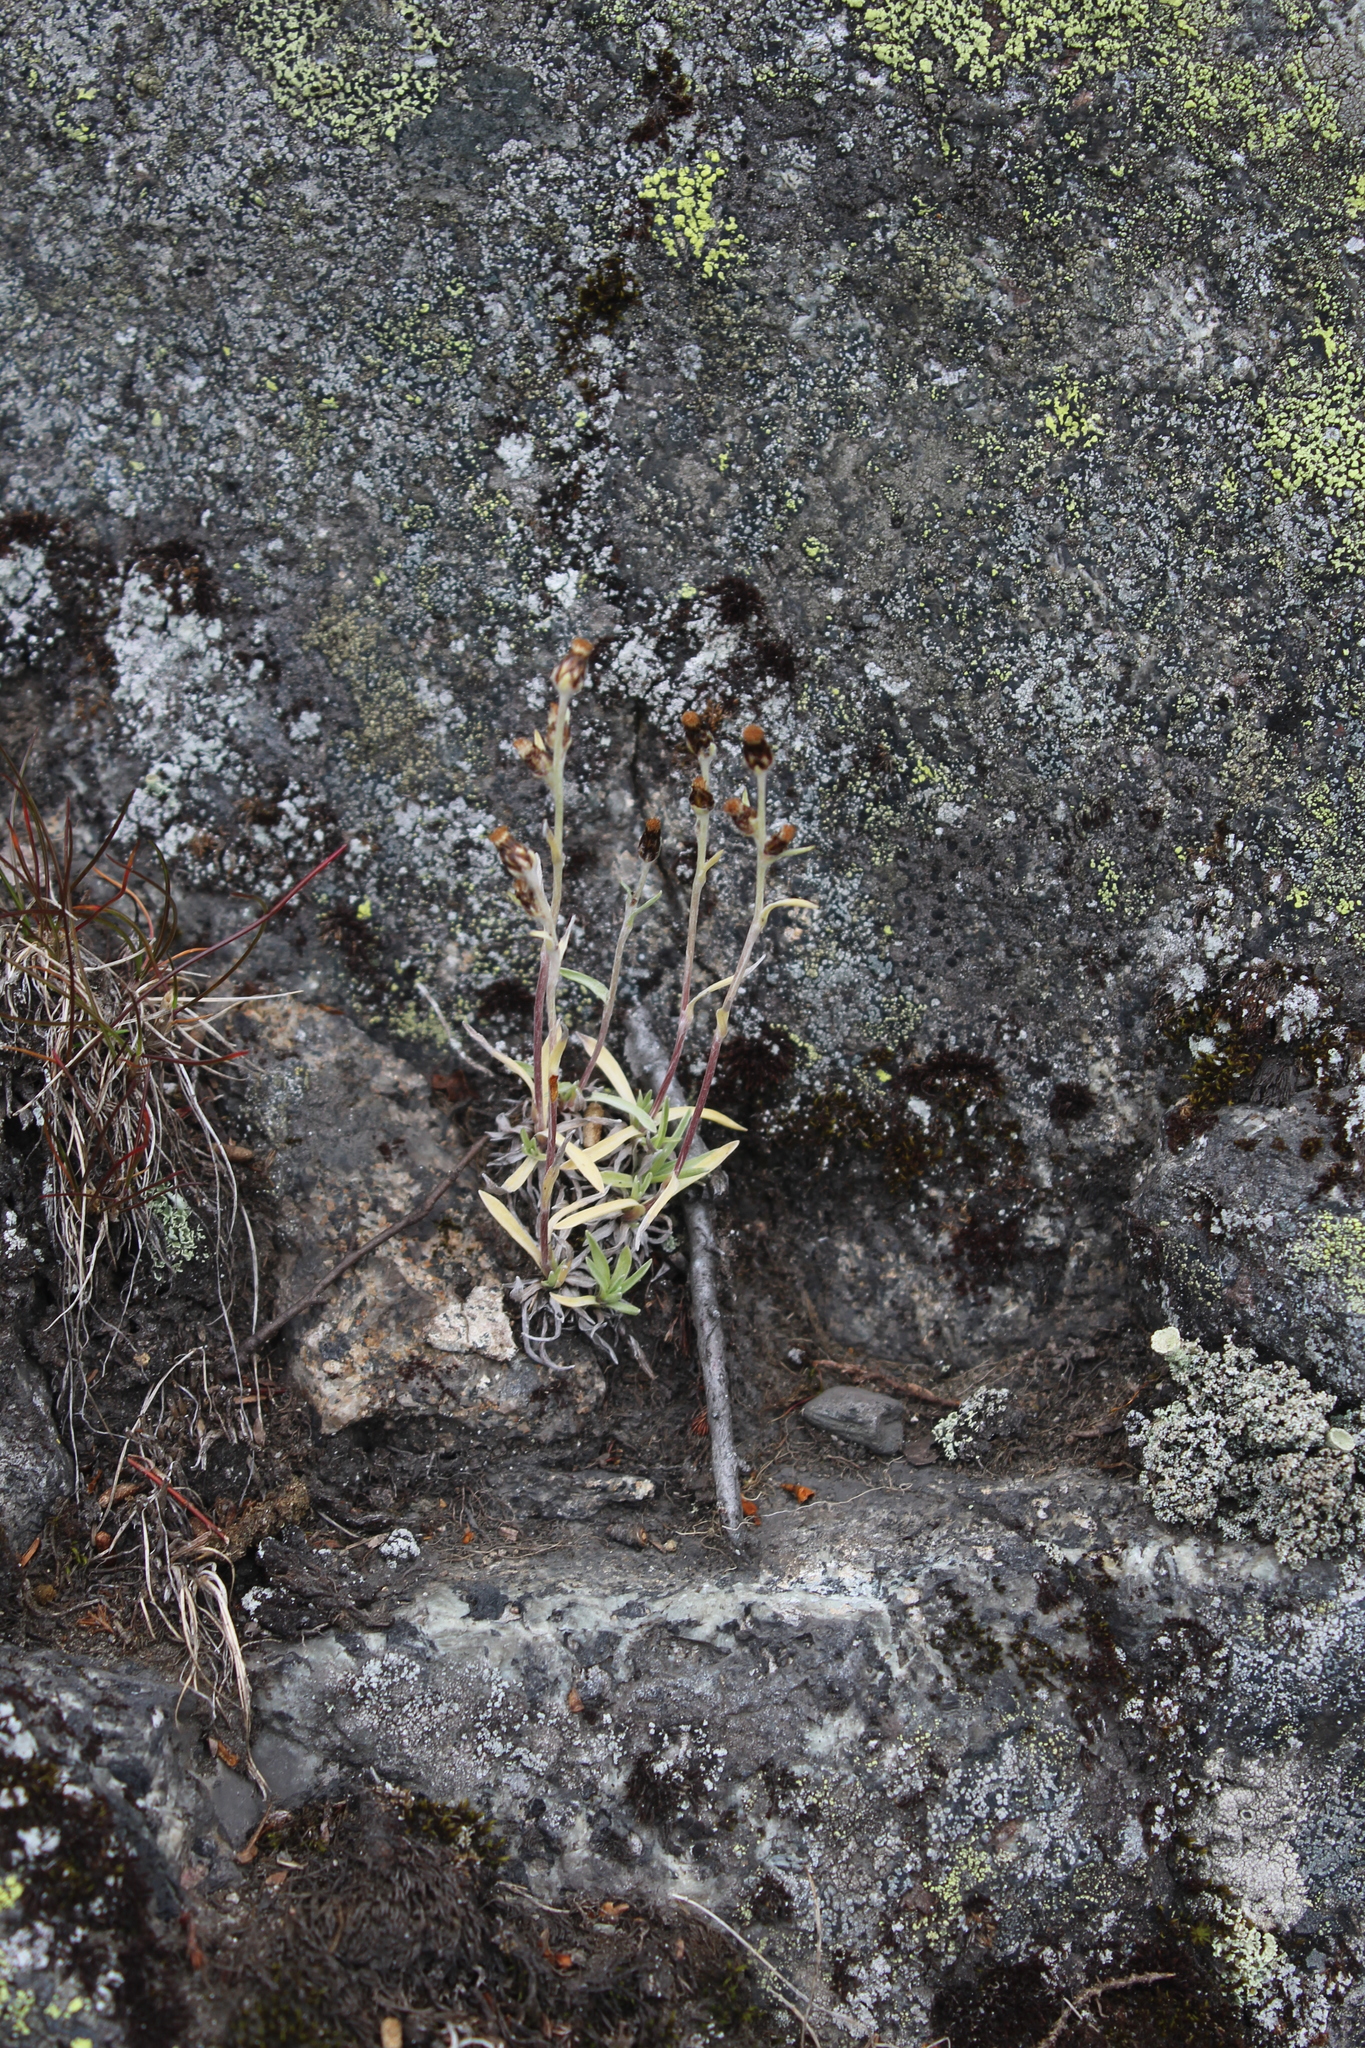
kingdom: Plantae
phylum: Tracheophyta
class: Magnoliopsida
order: Asterales
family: Asteraceae
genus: Omalotheca
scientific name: Omalotheca supina
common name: Alpine arctic-cudweed
